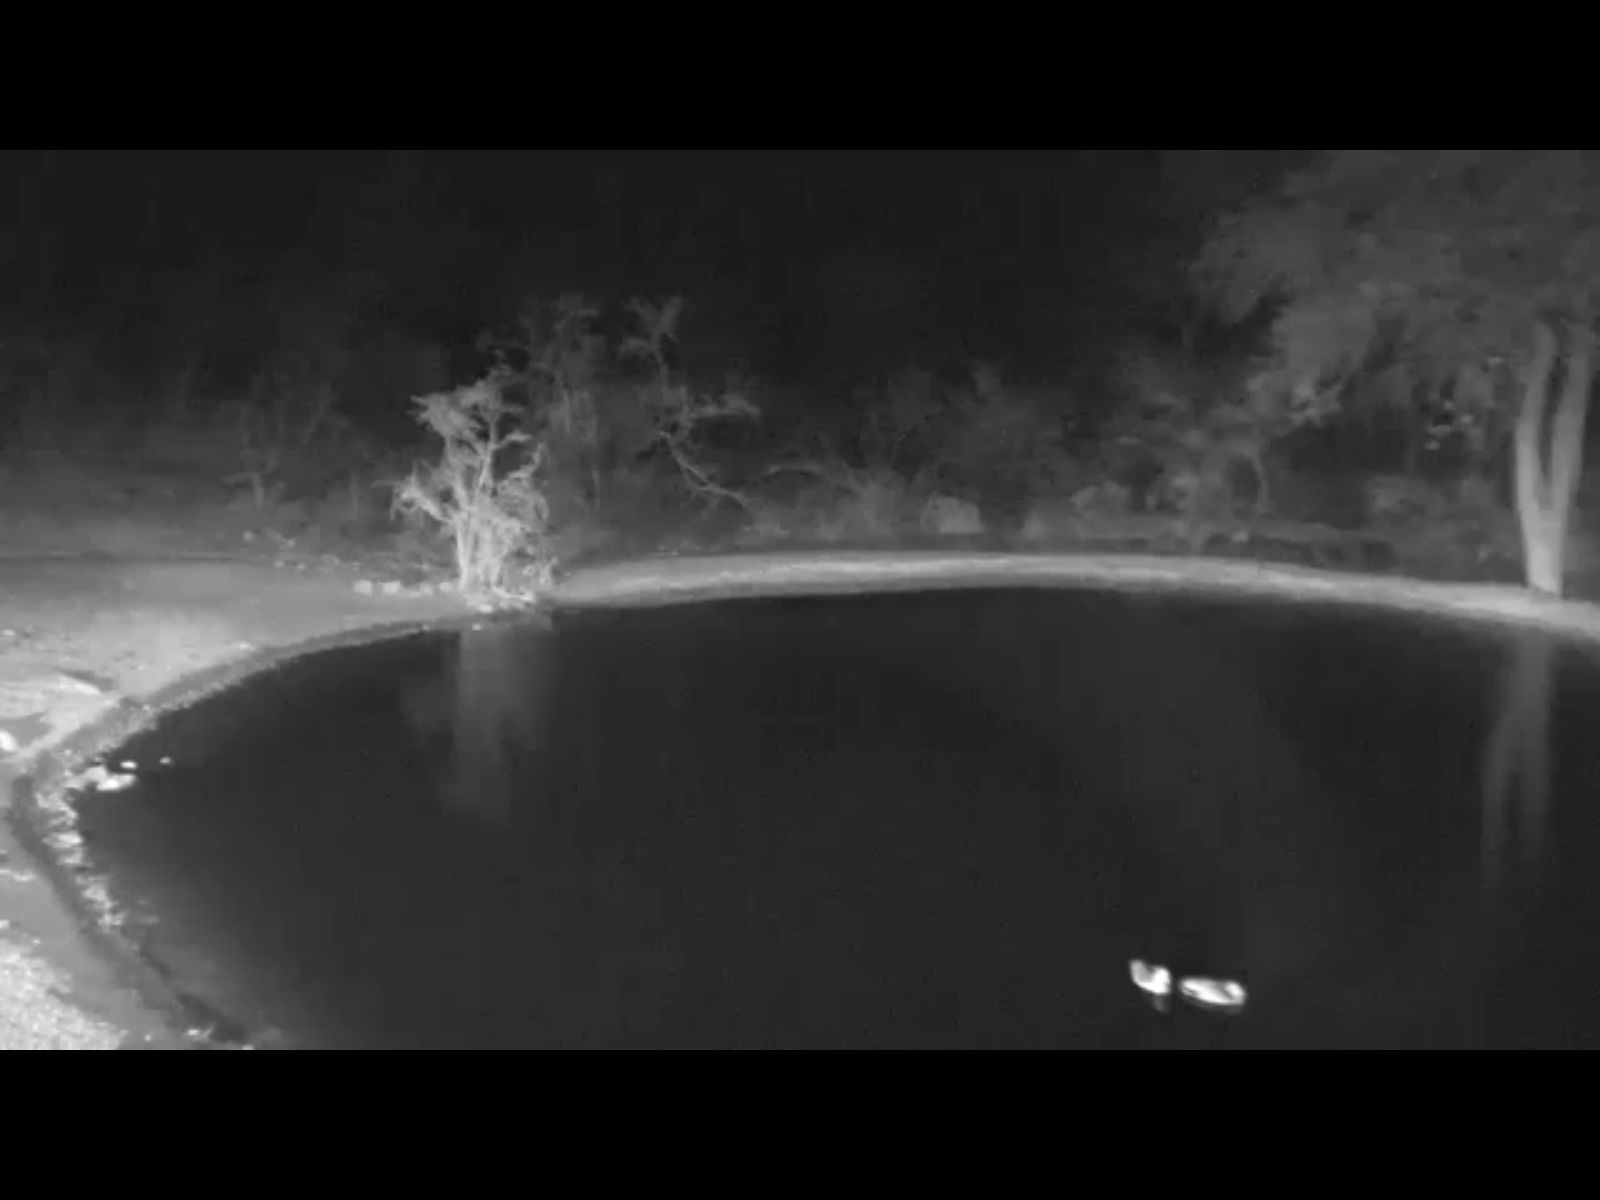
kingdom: Animalia
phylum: Chordata
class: Aves
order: Anseriformes
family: Anatidae
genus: Alopochen
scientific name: Alopochen aegyptiaca
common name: Egyptian goose
